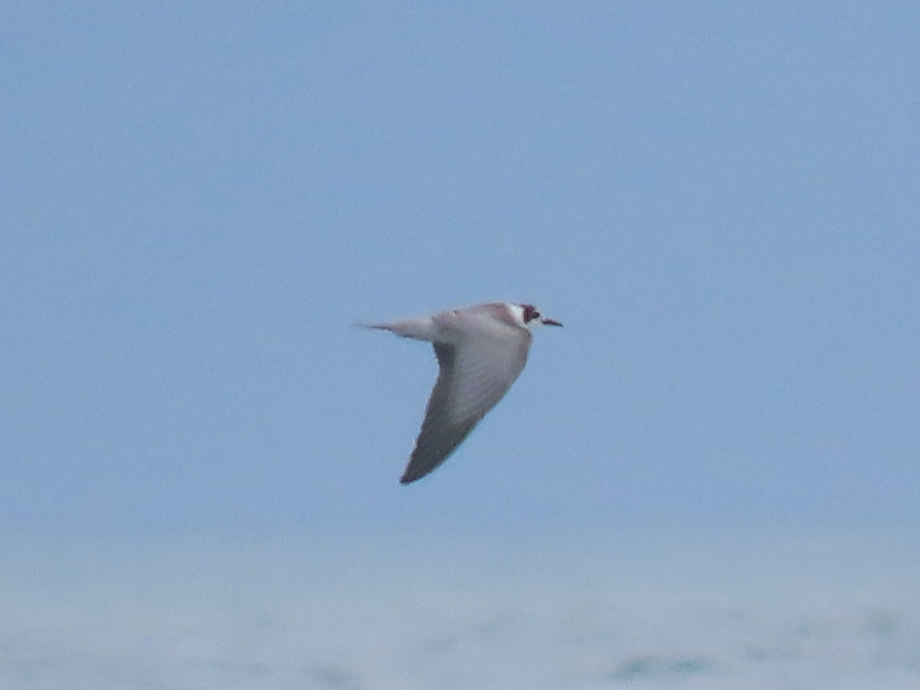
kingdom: Animalia
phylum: Chordata
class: Aves
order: Charadriiformes
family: Laridae
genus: Chlidonias
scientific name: Chlidonias niger
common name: Black tern
